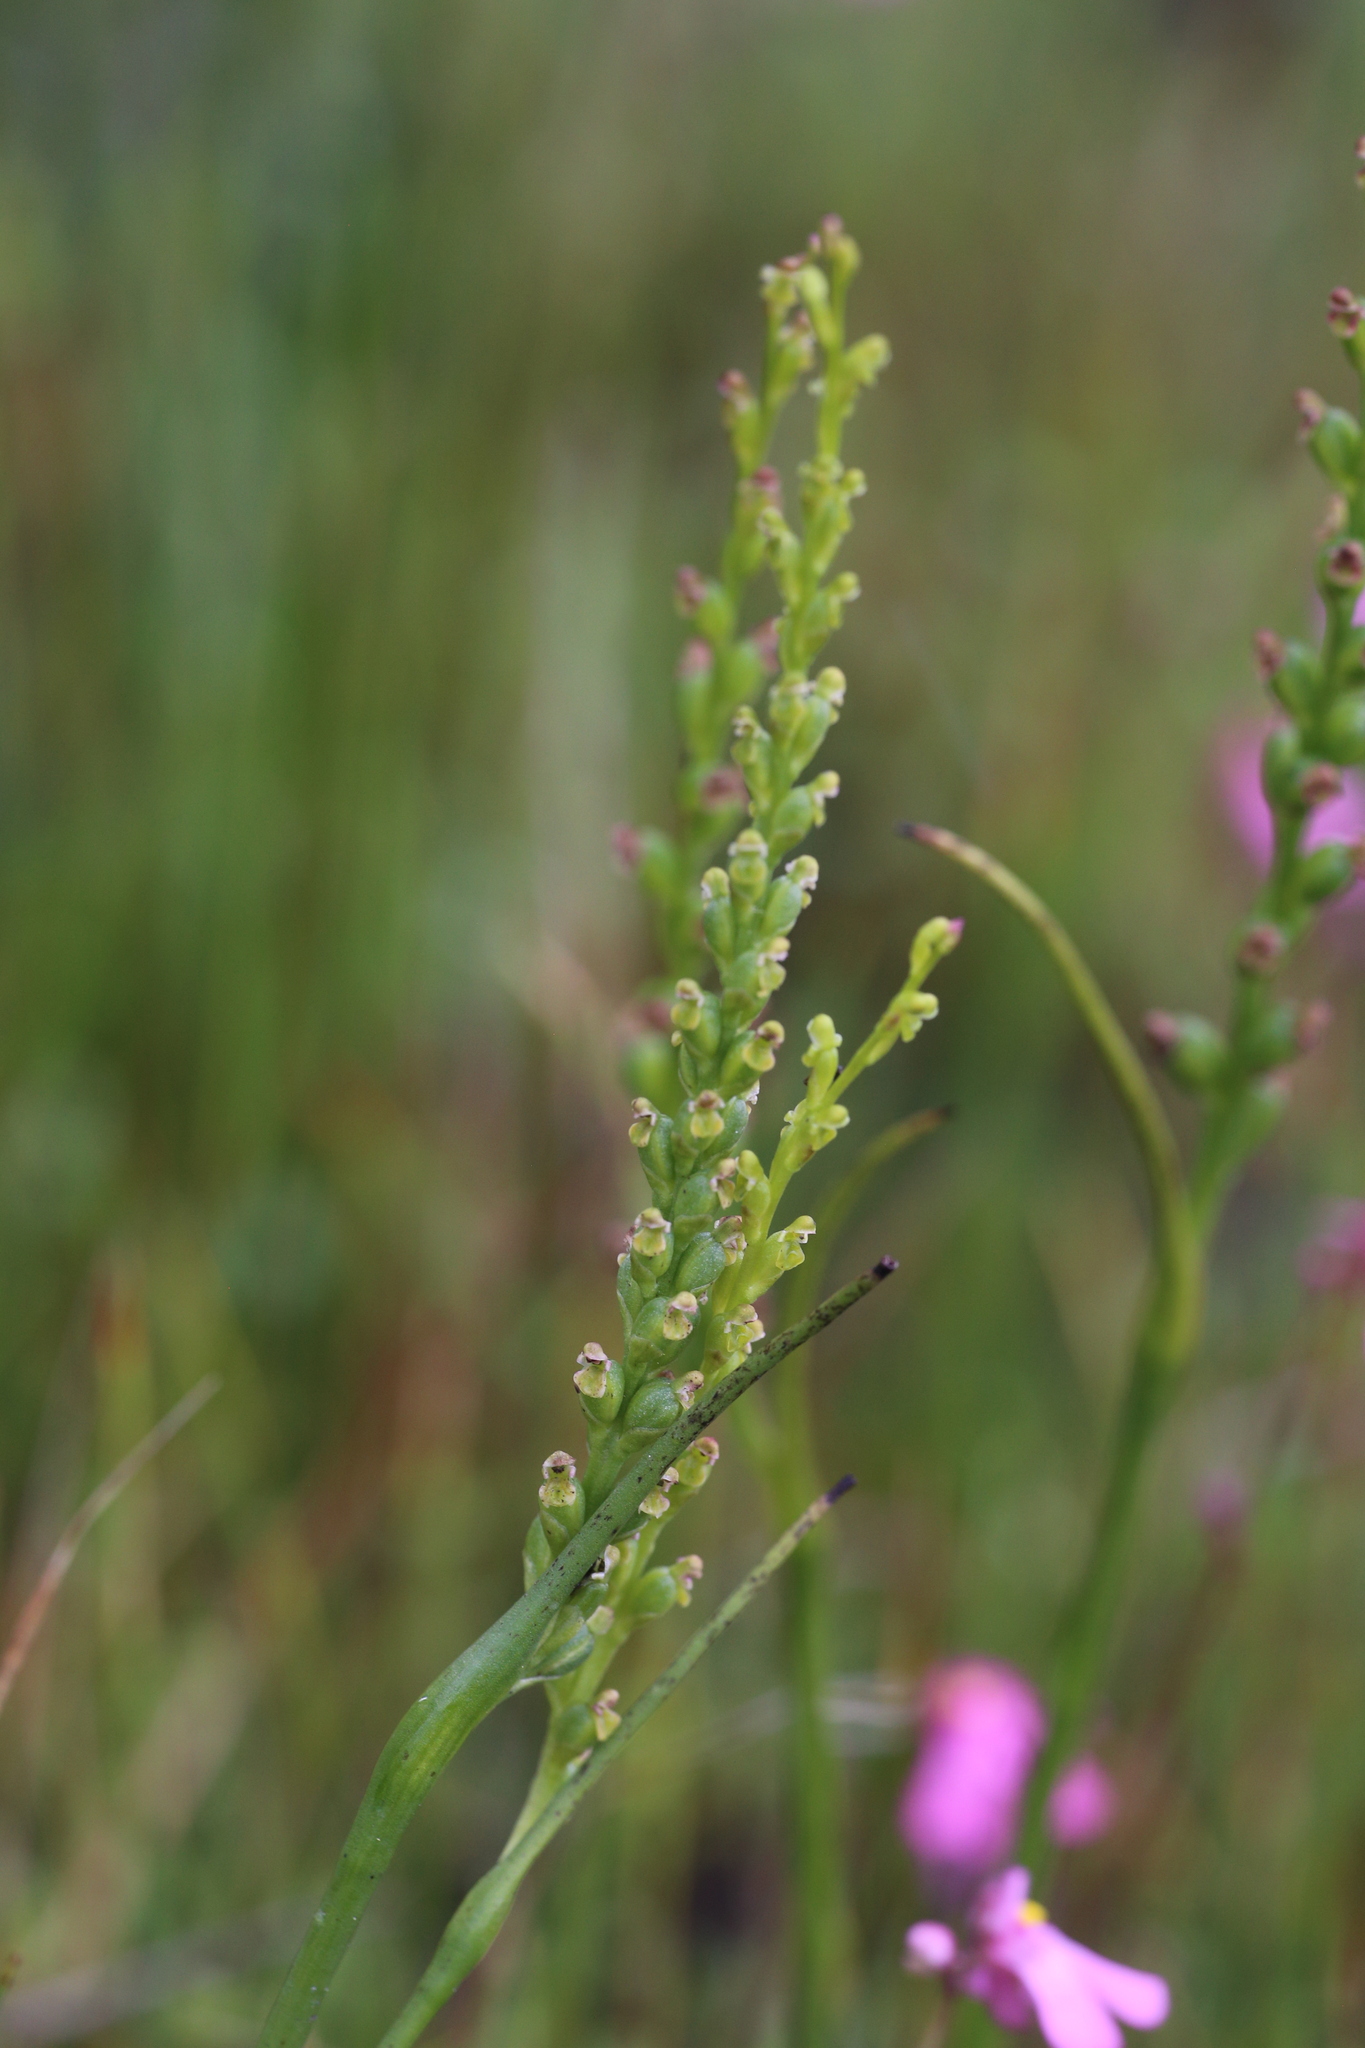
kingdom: Plantae
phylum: Tracheophyta
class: Liliopsida
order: Asparagales
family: Orchidaceae
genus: Microtis
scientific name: Microtis orbicularis
